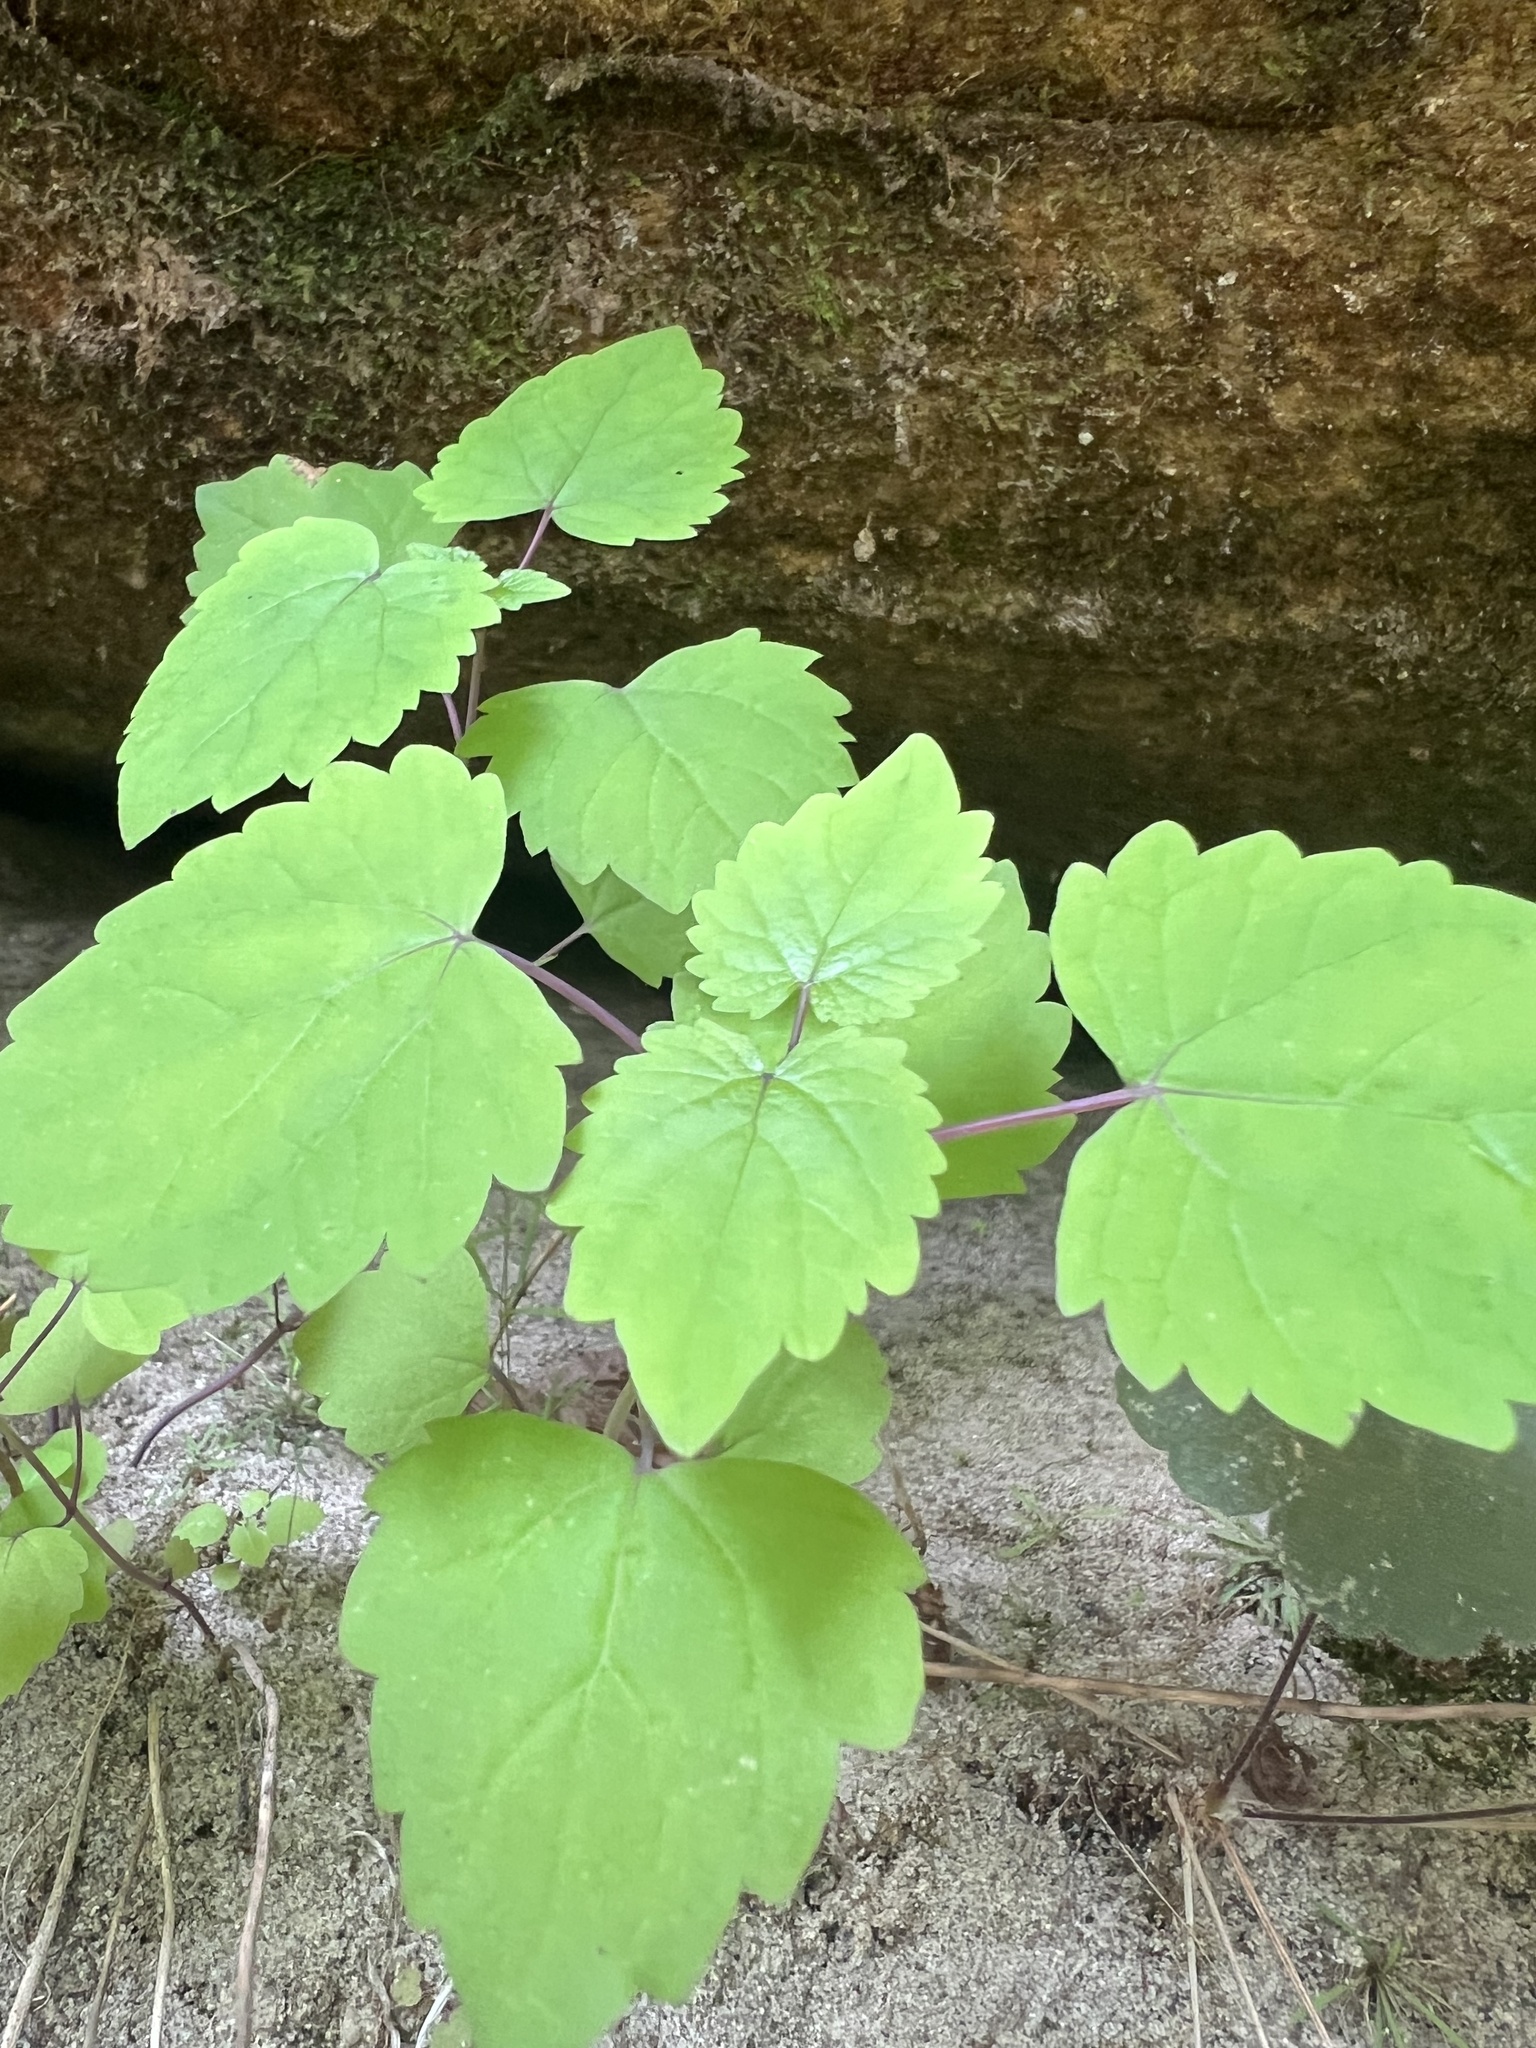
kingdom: Plantae
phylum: Tracheophyta
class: Magnoliopsida
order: Asterales
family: Asteraceae
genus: Ageratina
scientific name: Ageratina luciae-brauniae
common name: Lucy braun's eupatorium
